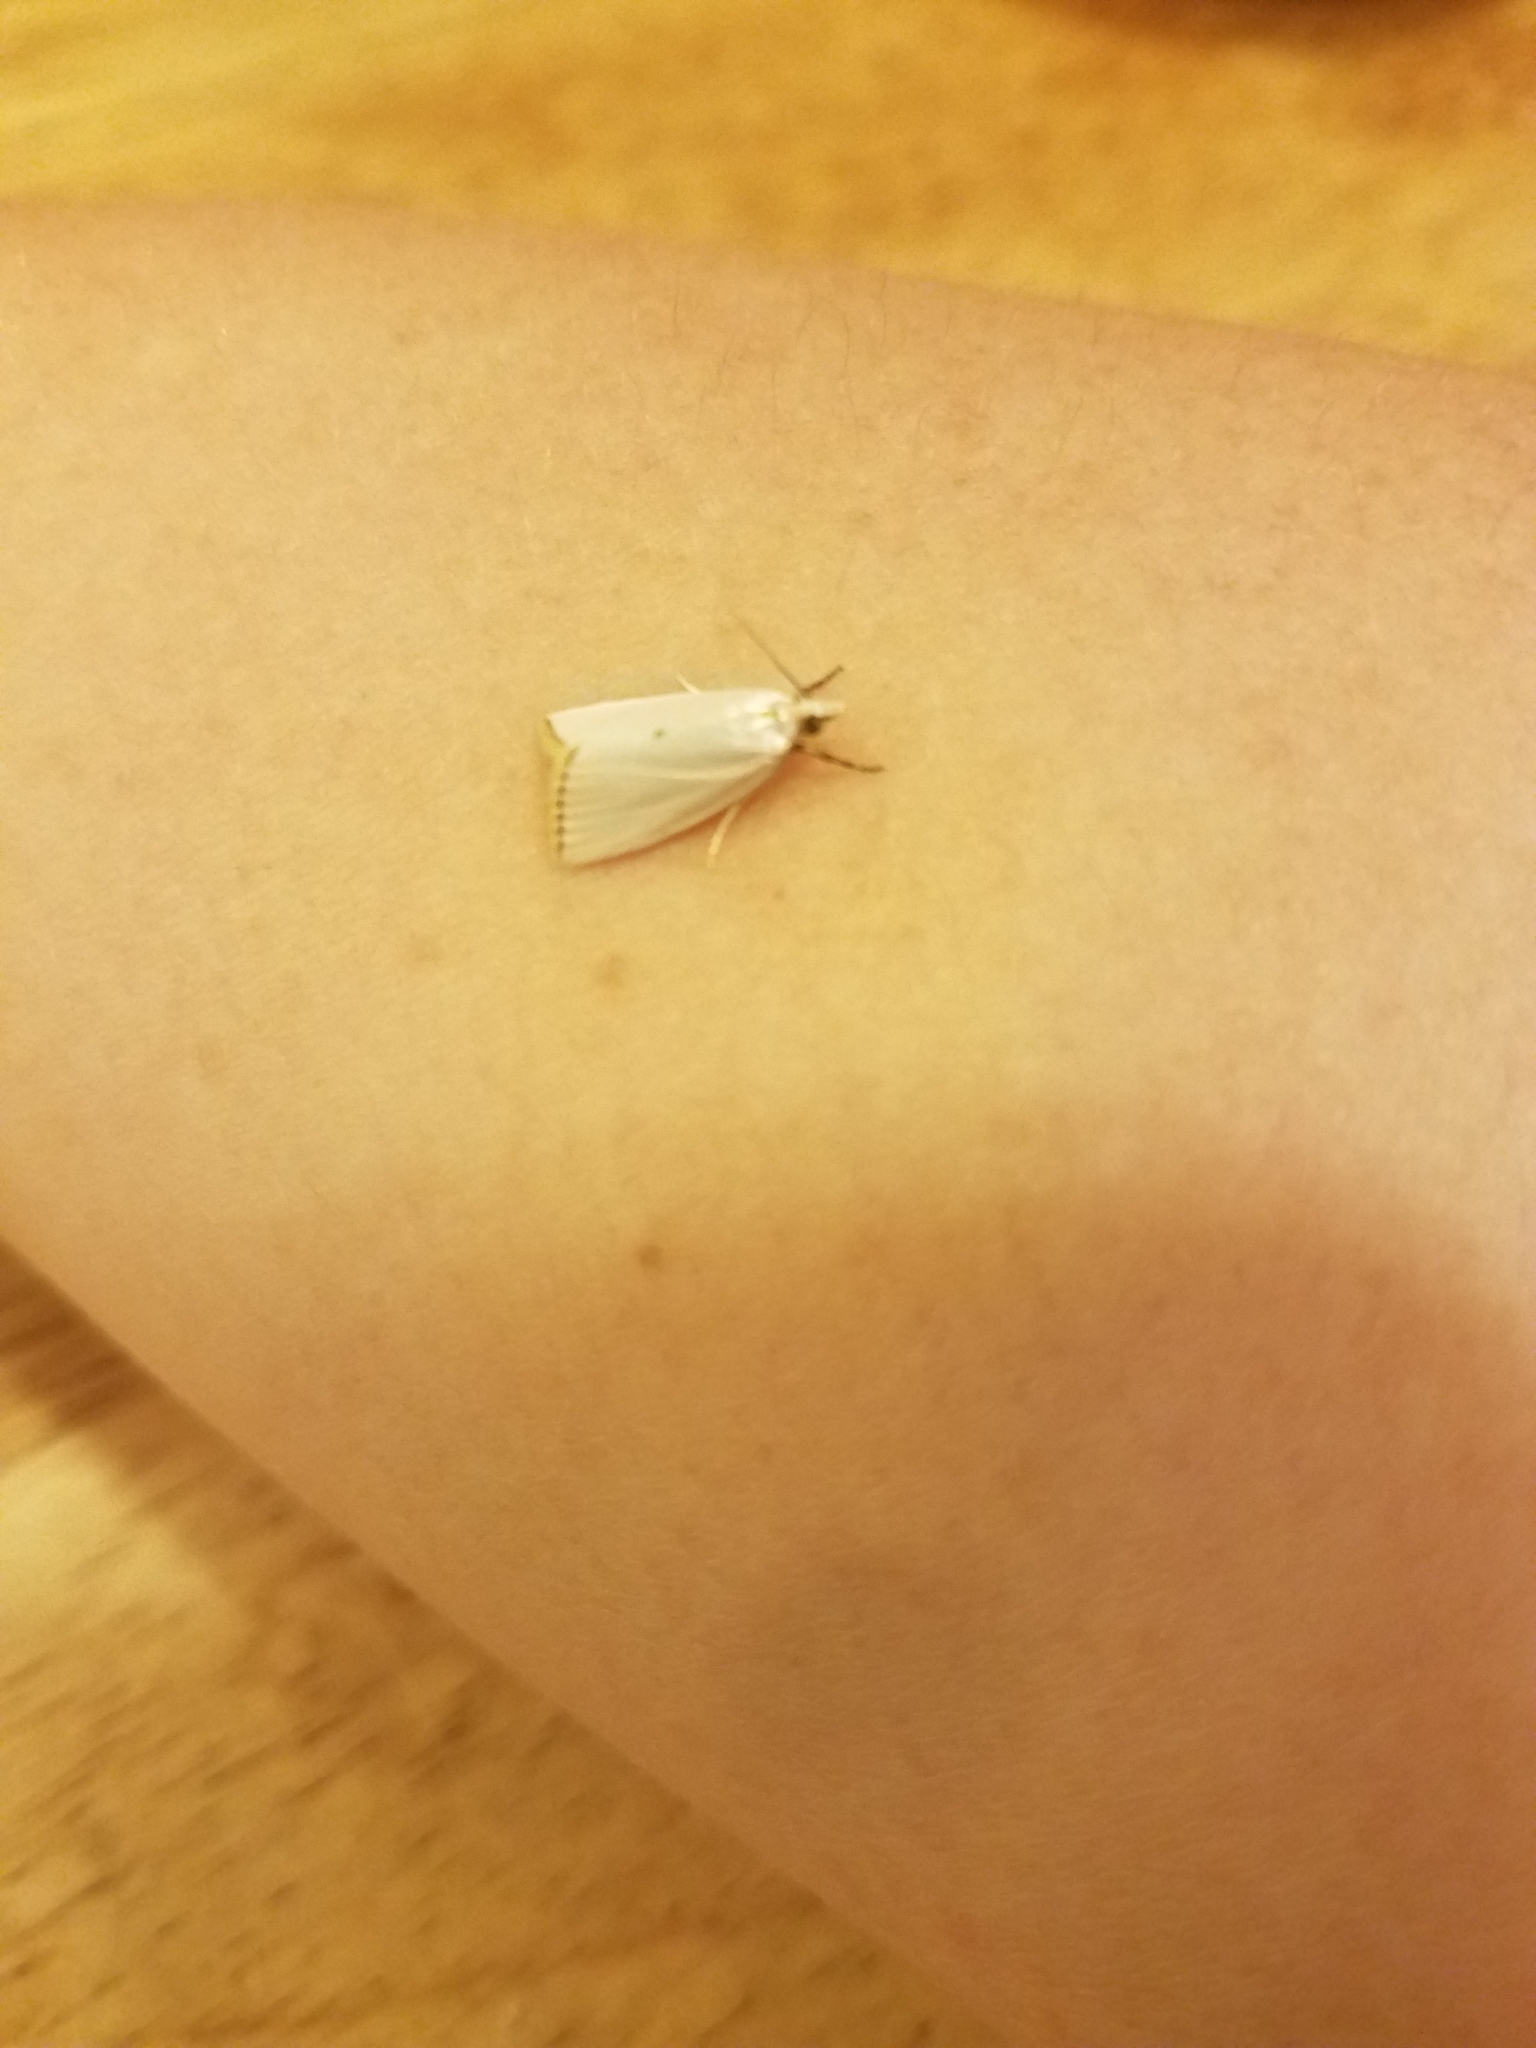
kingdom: Animalia
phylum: Arthropoda
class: Insecta
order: Lepidoptera
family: Crambidae
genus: Argyria
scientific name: Argyria nivalis
